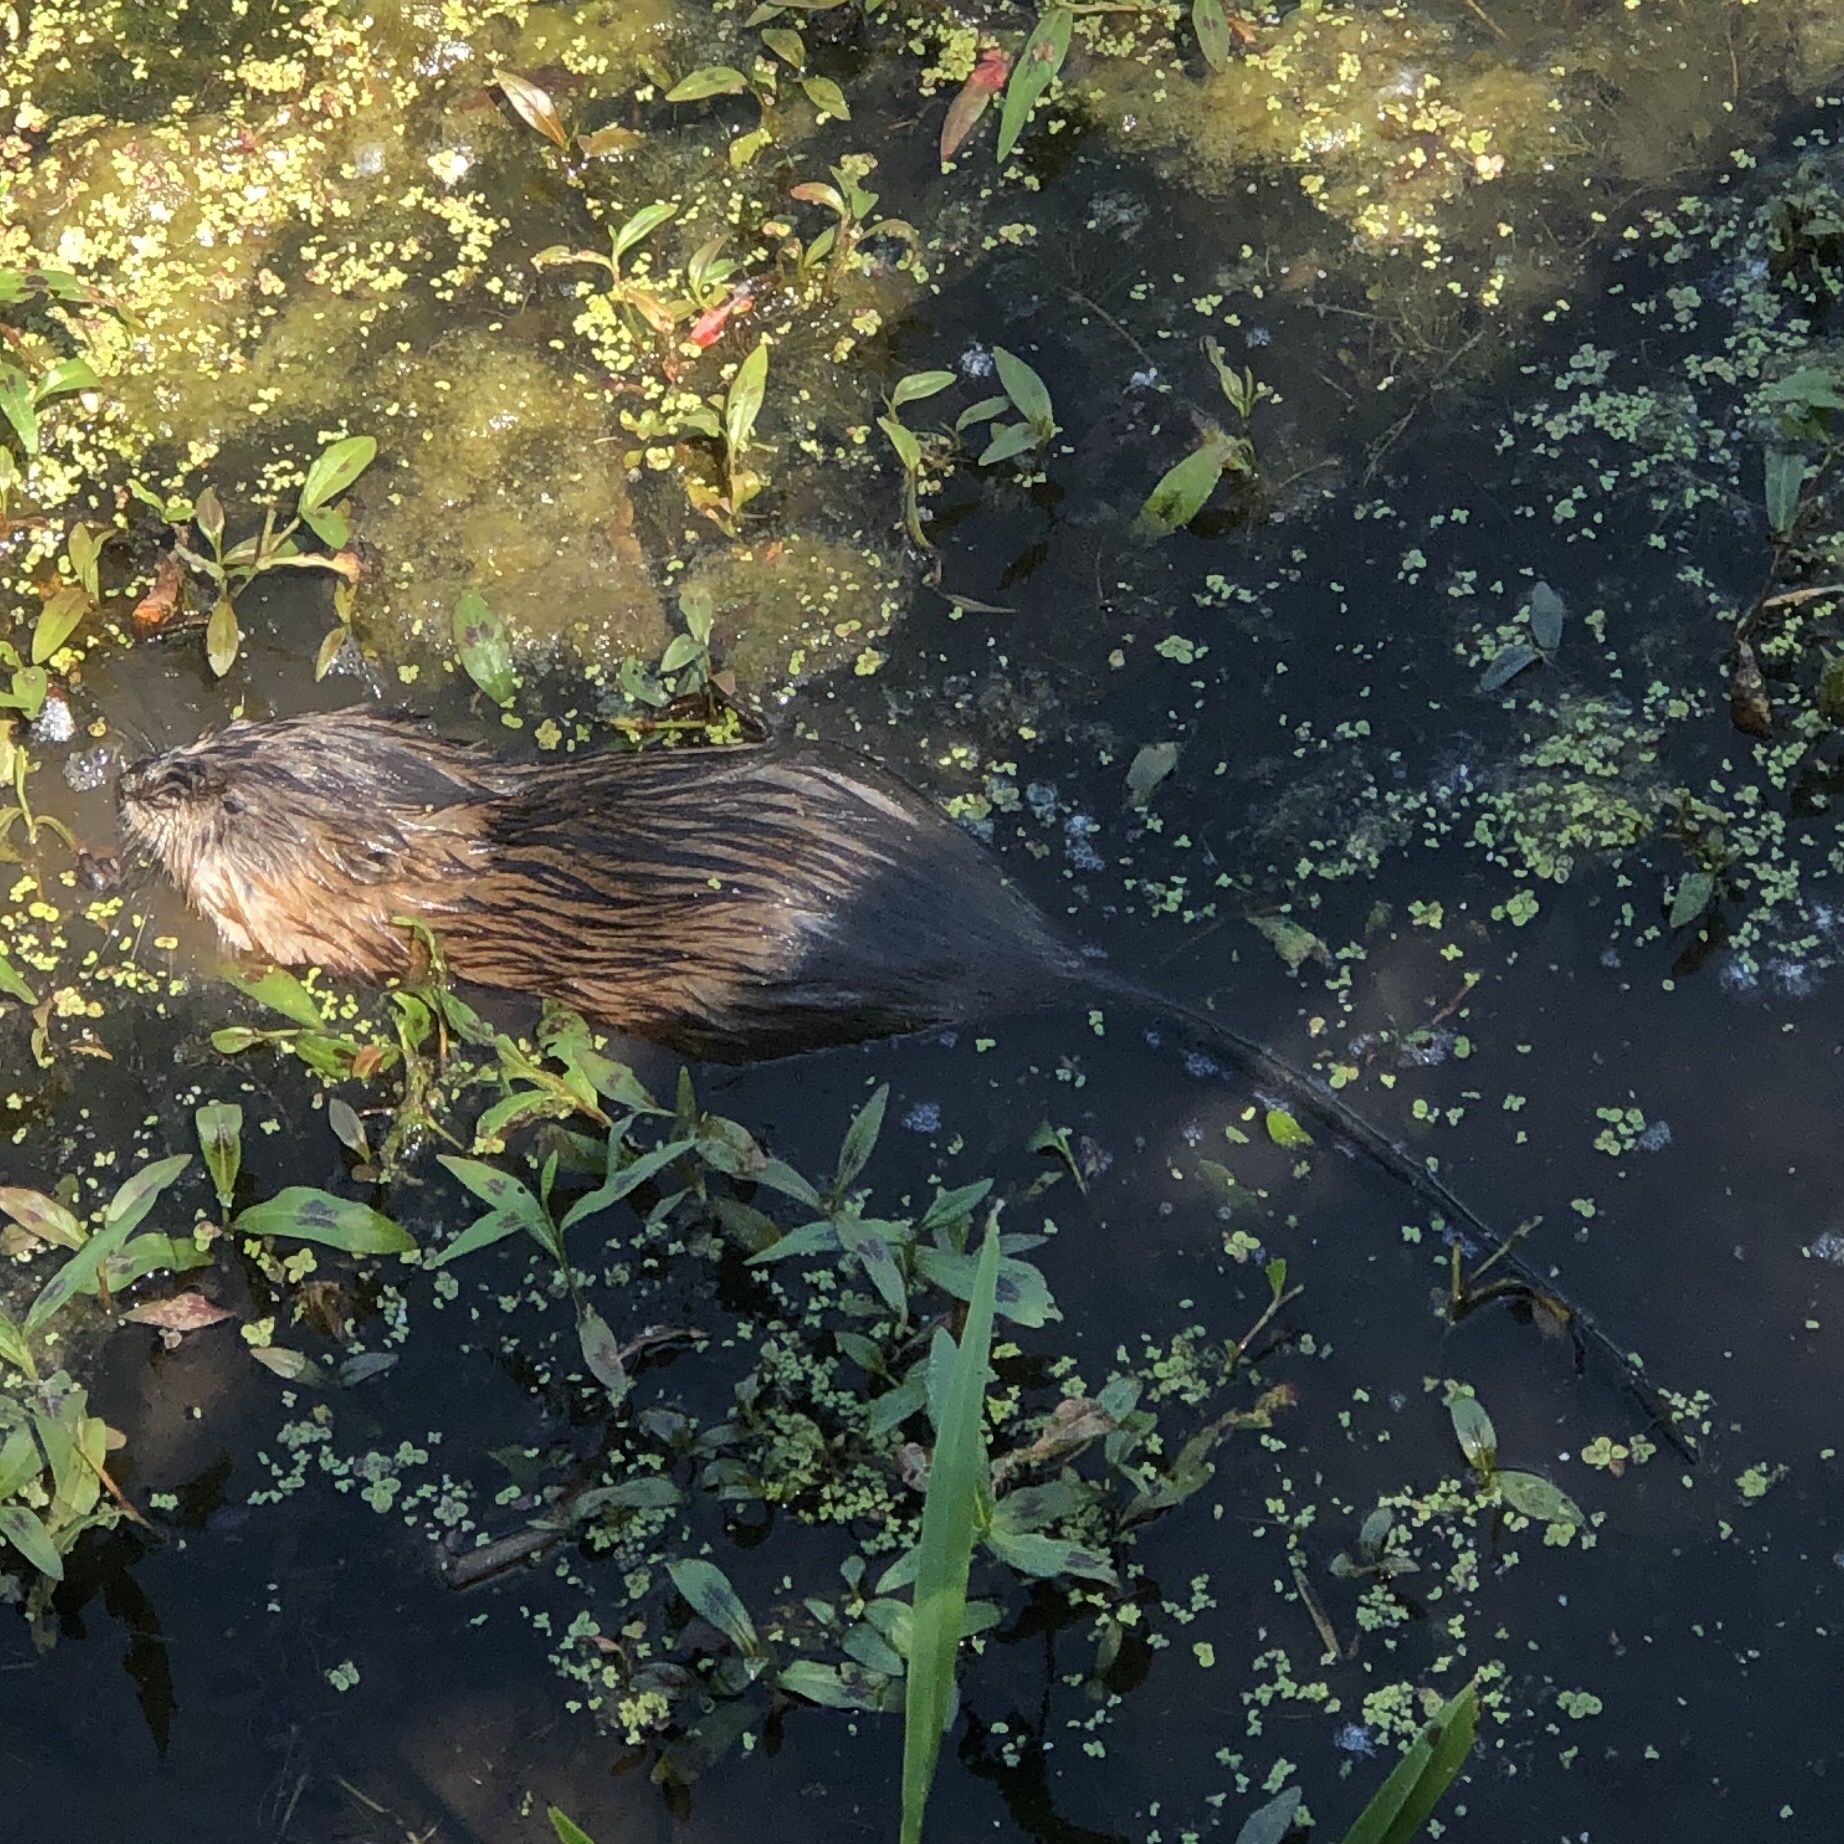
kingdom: Animalia
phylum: Chordata
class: Mammalia
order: Rodentia
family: Cricetidae
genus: Ondatra
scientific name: Ondatra zibethicus
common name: Muskrat
